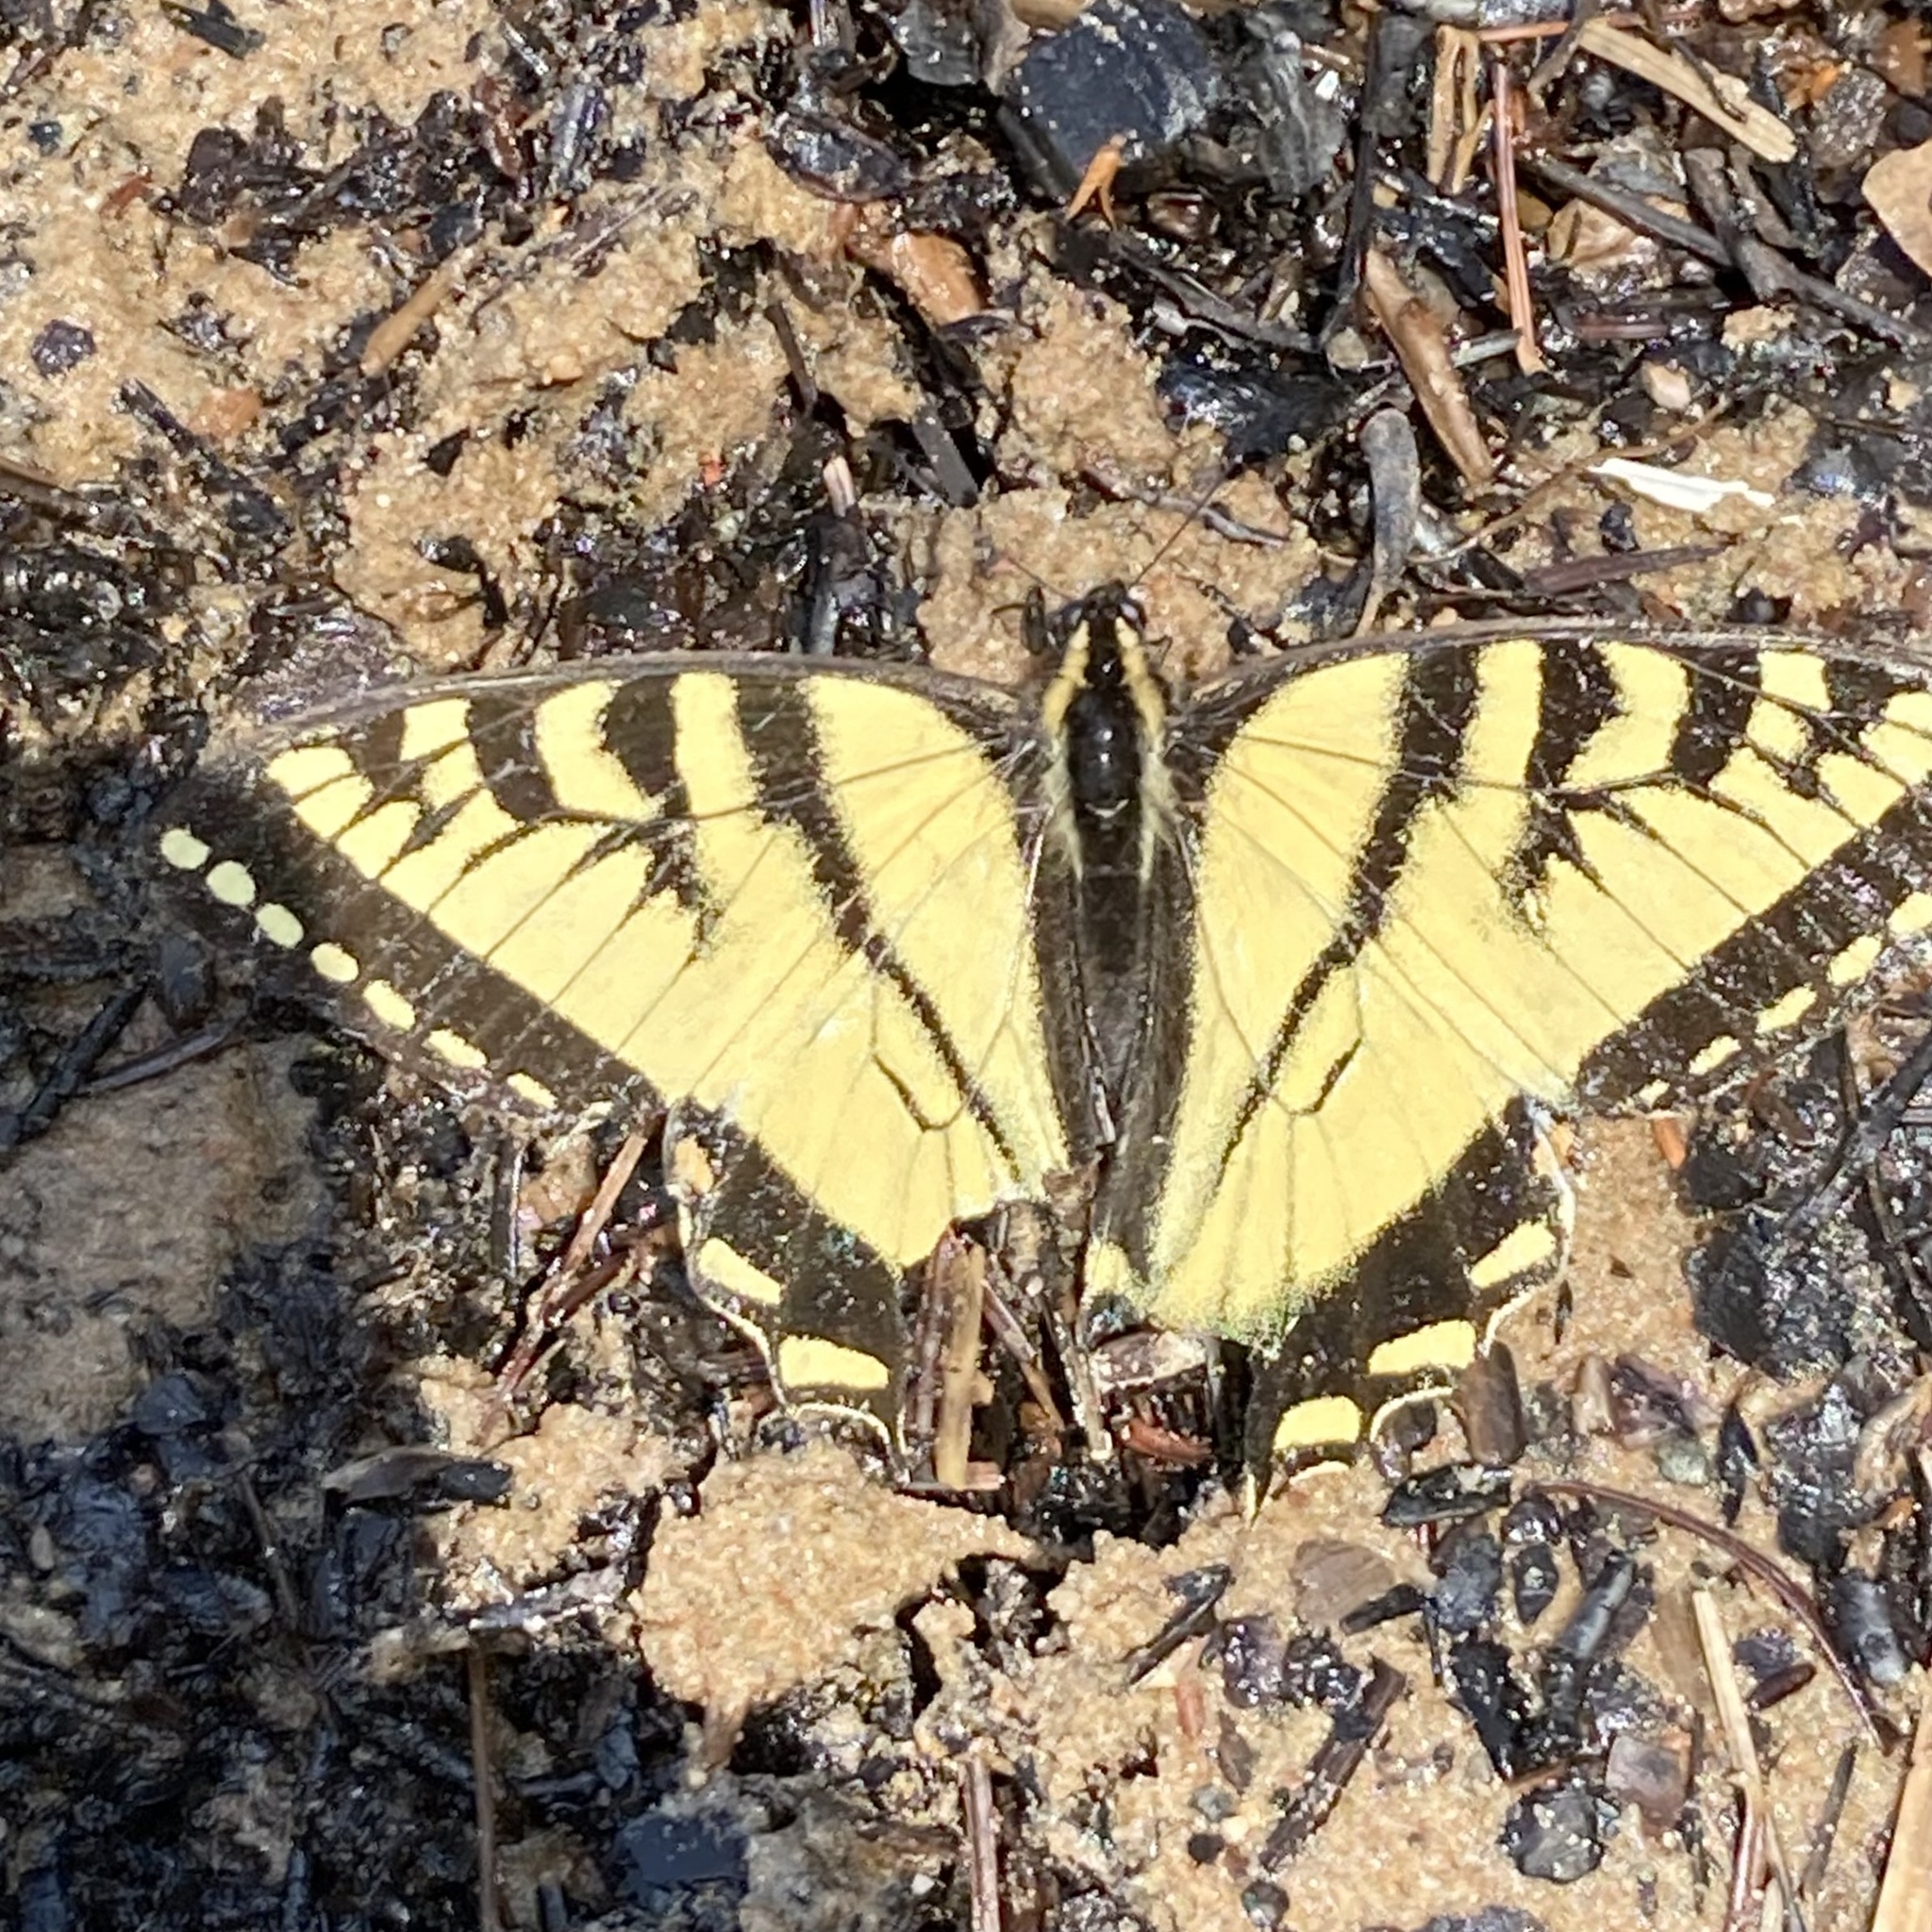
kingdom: Animalia
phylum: Arthropoda
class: Insecta
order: Lepidoptera
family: Papilionidae
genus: Papilio
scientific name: Papilio canadensis
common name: Canadian tiger swallowtail
